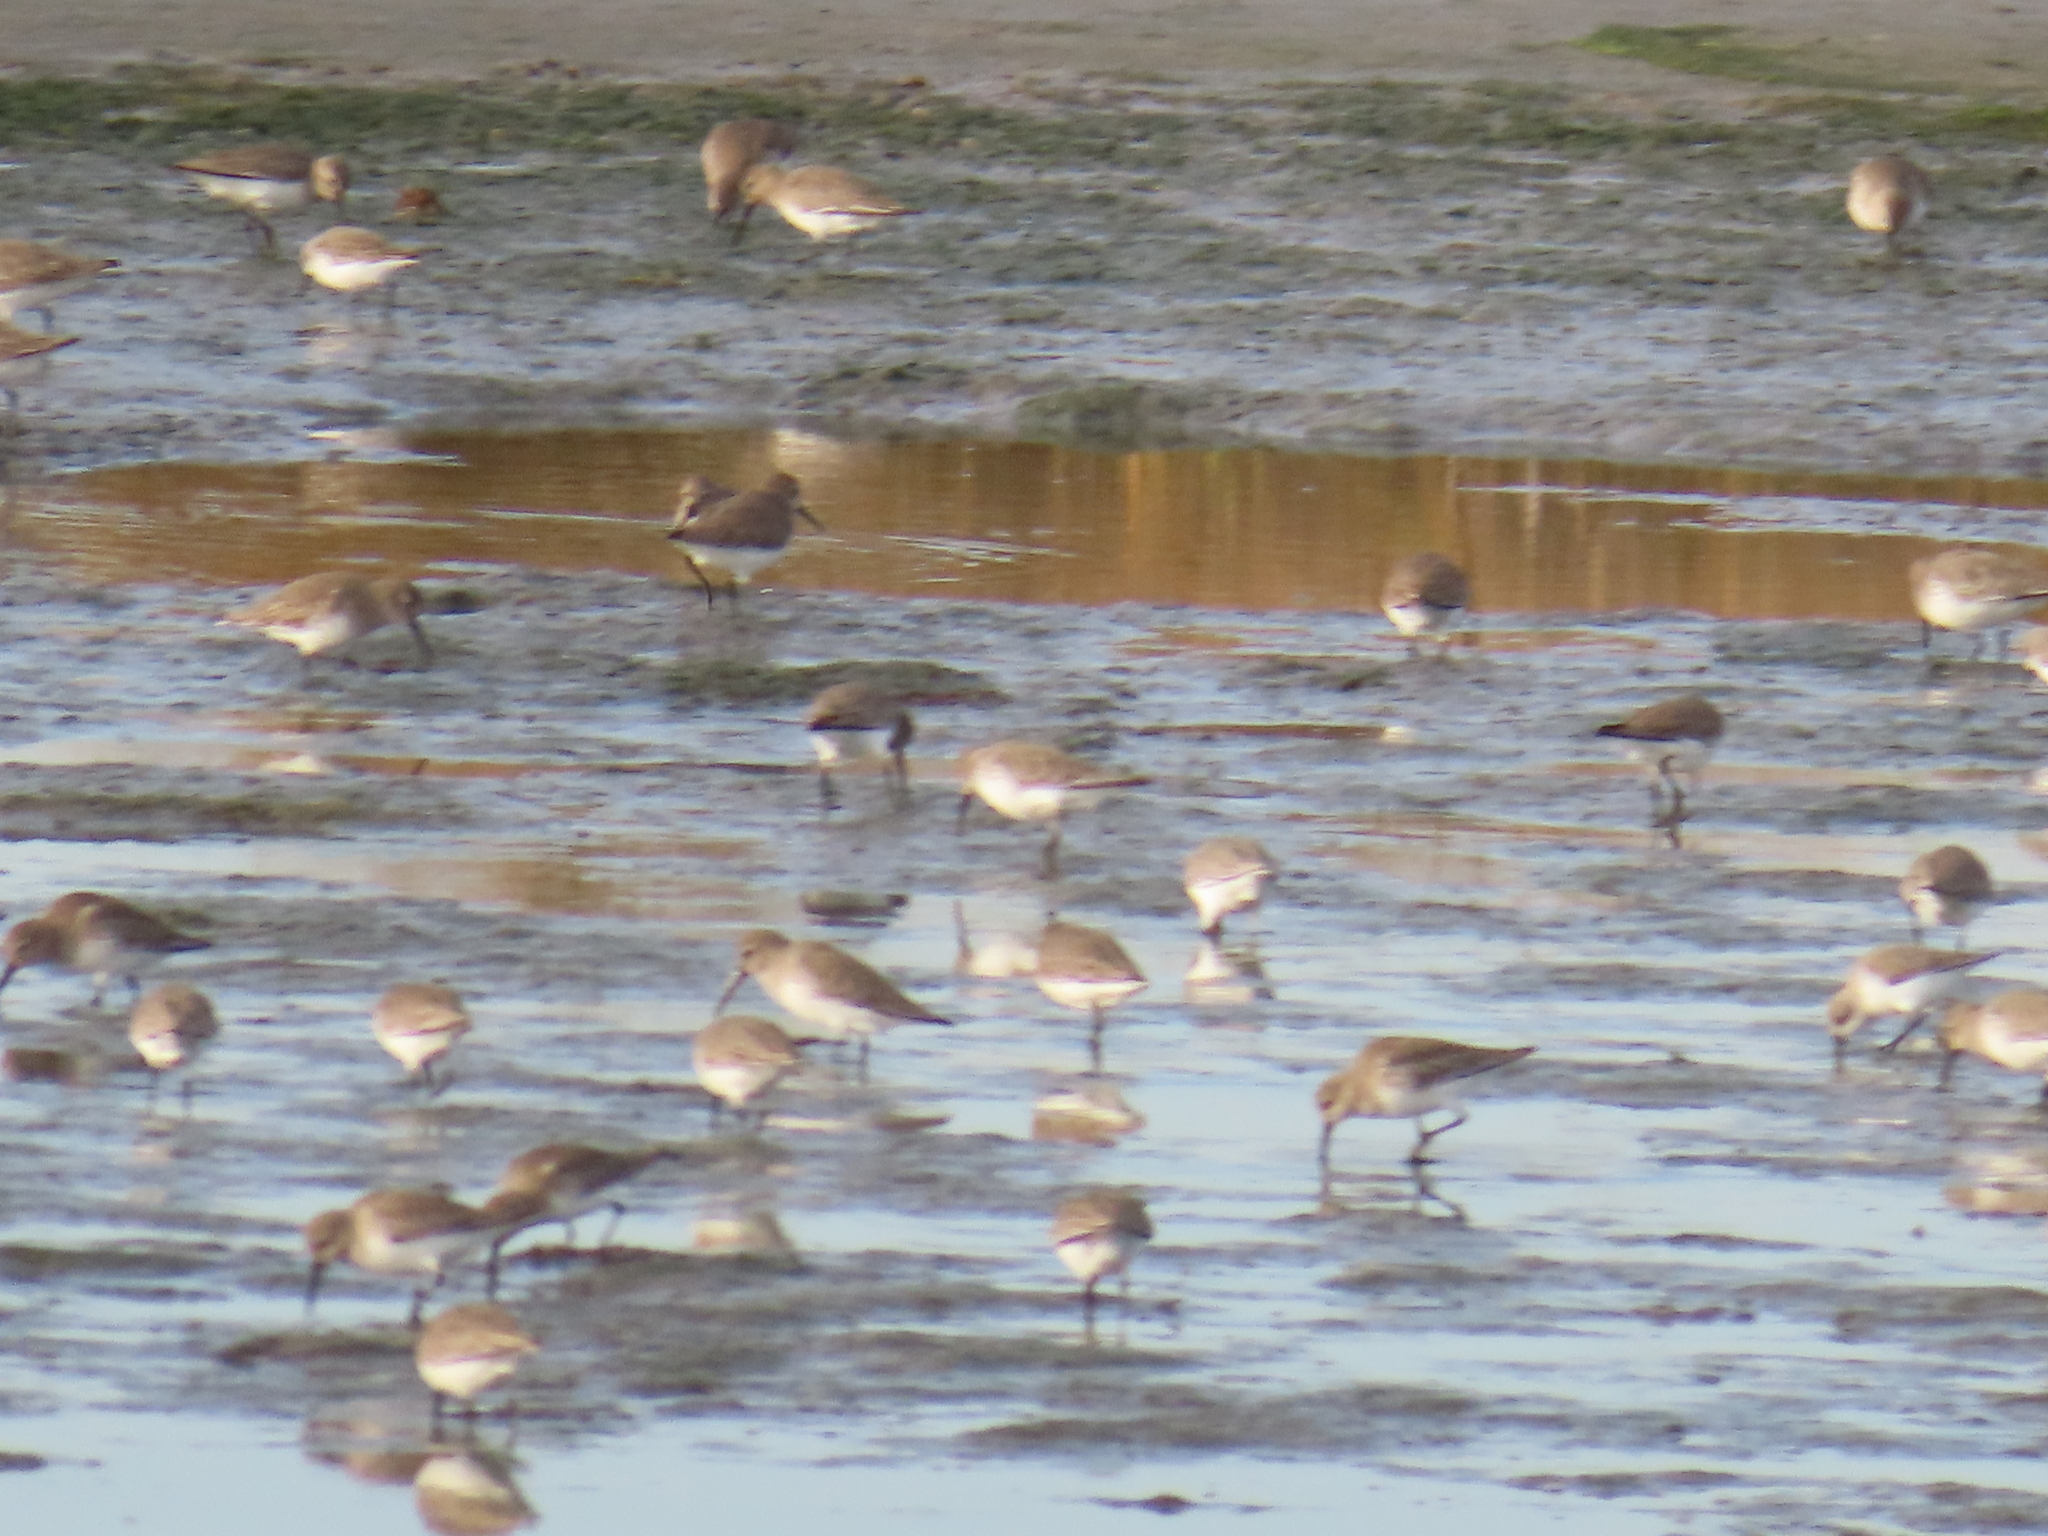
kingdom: Animalia
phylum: Chordata
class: Aves
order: Charadriiformes
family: Scolopacidae
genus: Calidris
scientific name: Calidris alpina
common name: Dunlin
